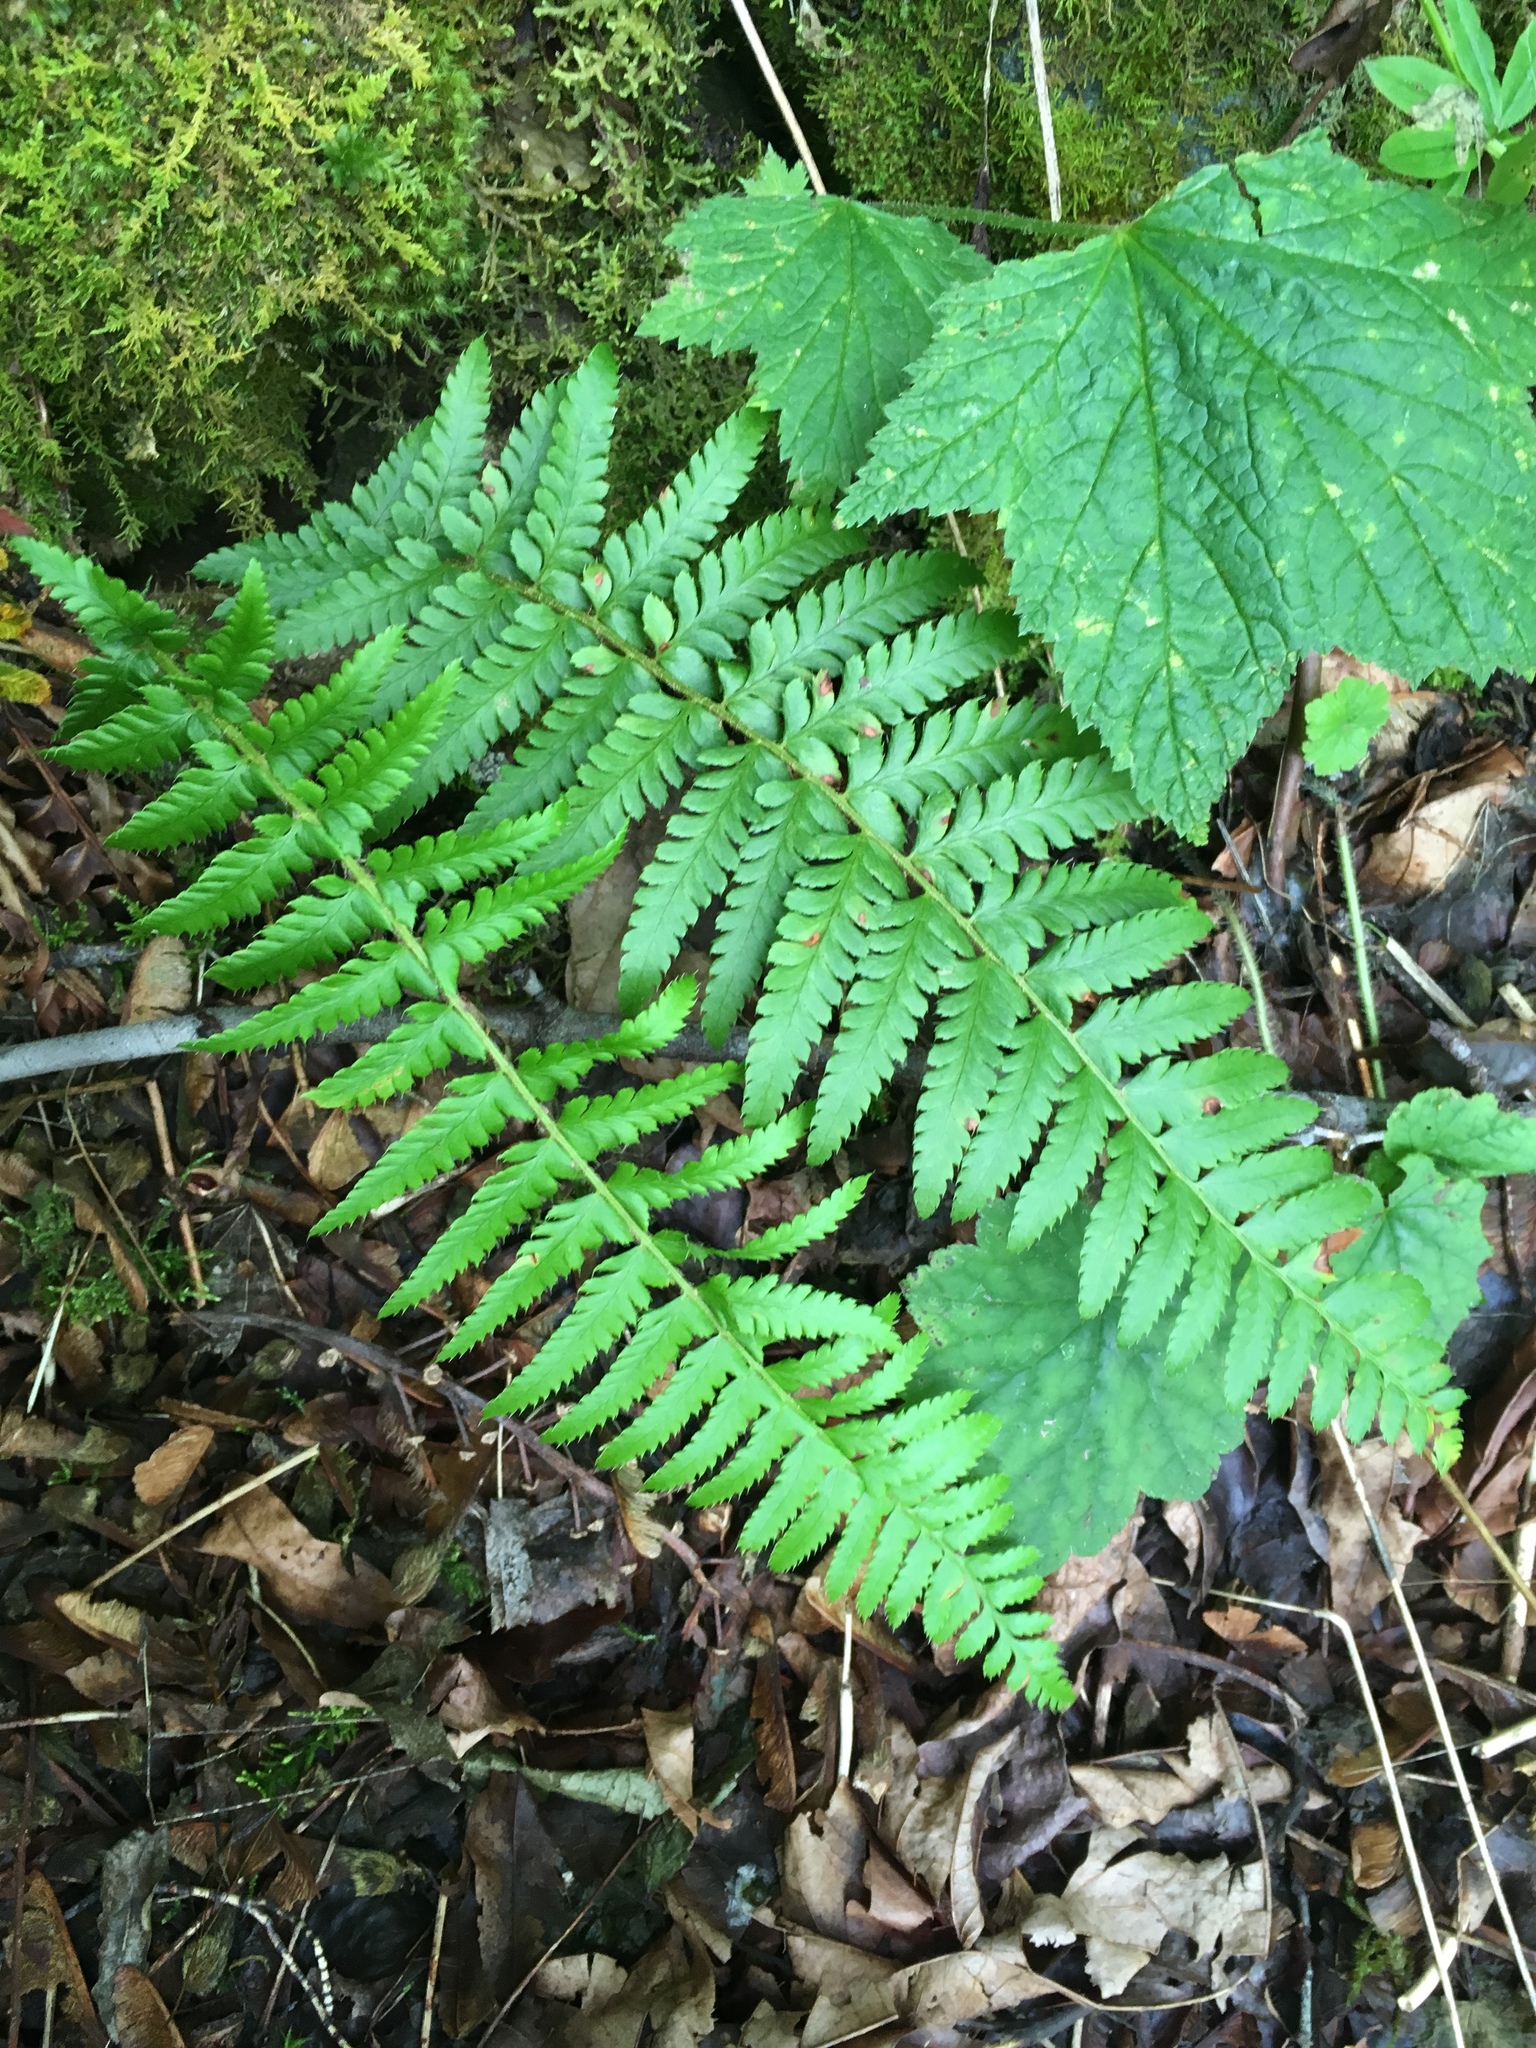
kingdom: Plantae
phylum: Tracheophyta
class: Polypodiopsida
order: Polypodiales
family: Dryopteridaceae
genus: Polystichum
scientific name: Polystichum andersonii
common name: Anderson's holly fern
